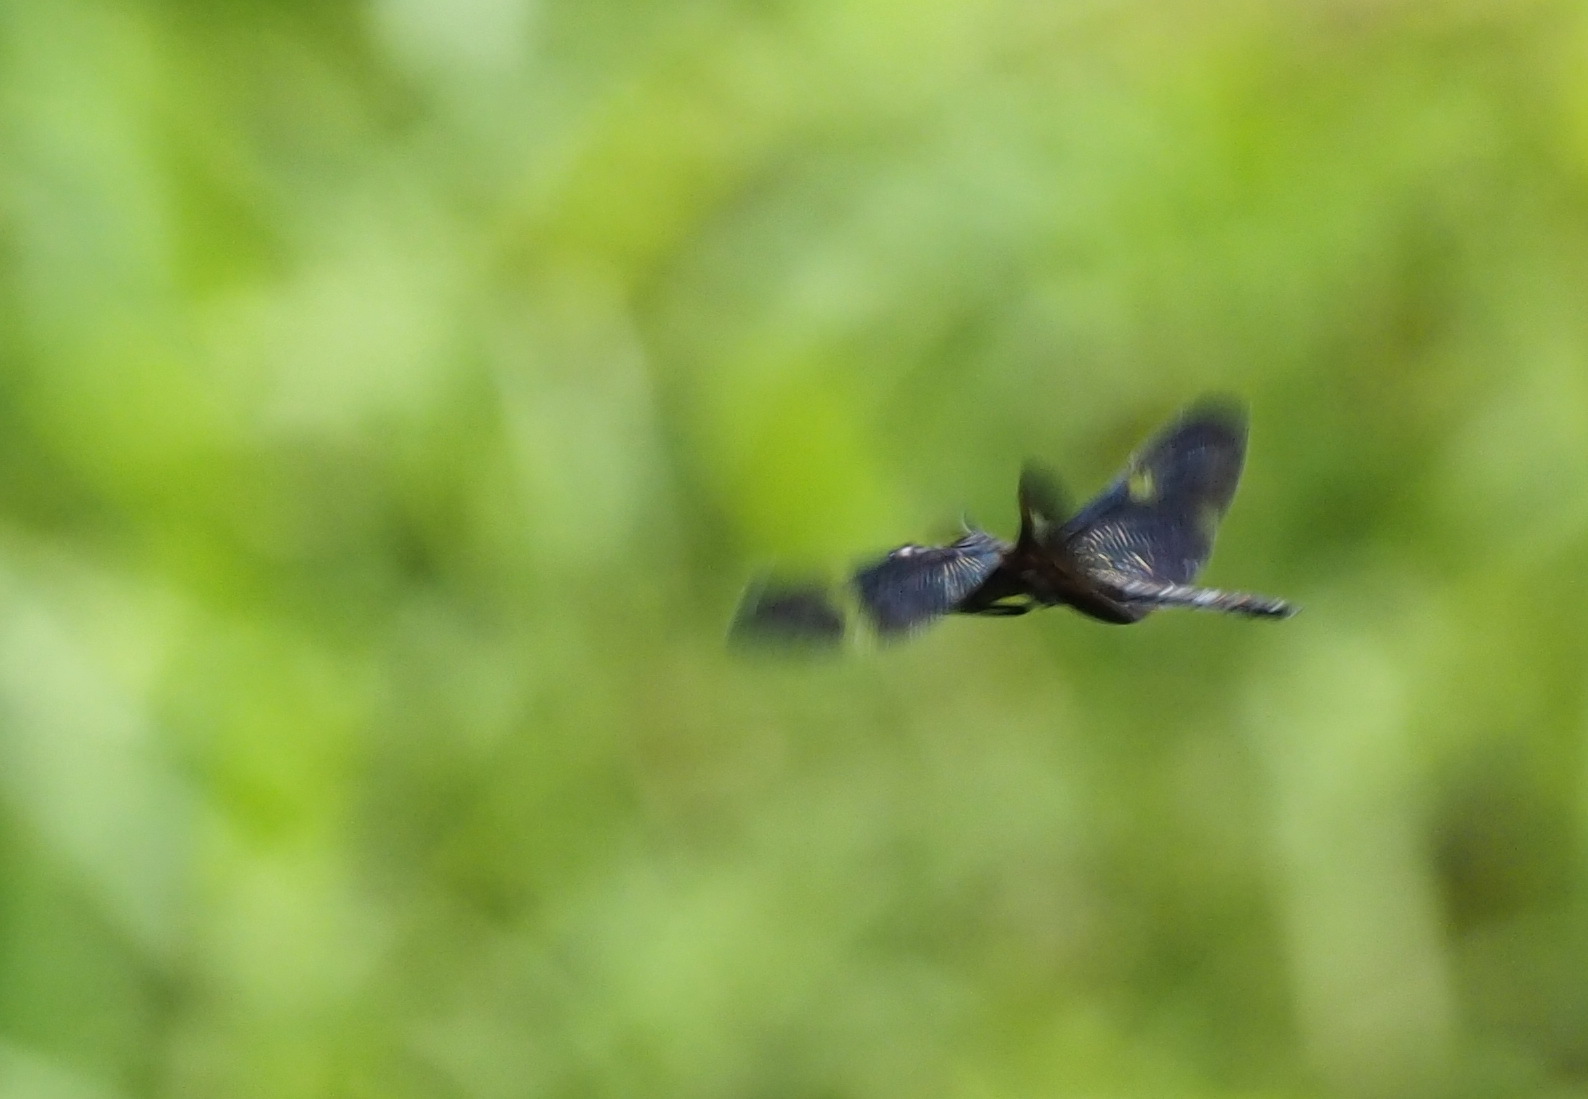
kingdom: Animalia
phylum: Arthropoda
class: Insecta
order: Odonata
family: Libellulidae
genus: Rhyothemis
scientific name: Rhyothemis regia
